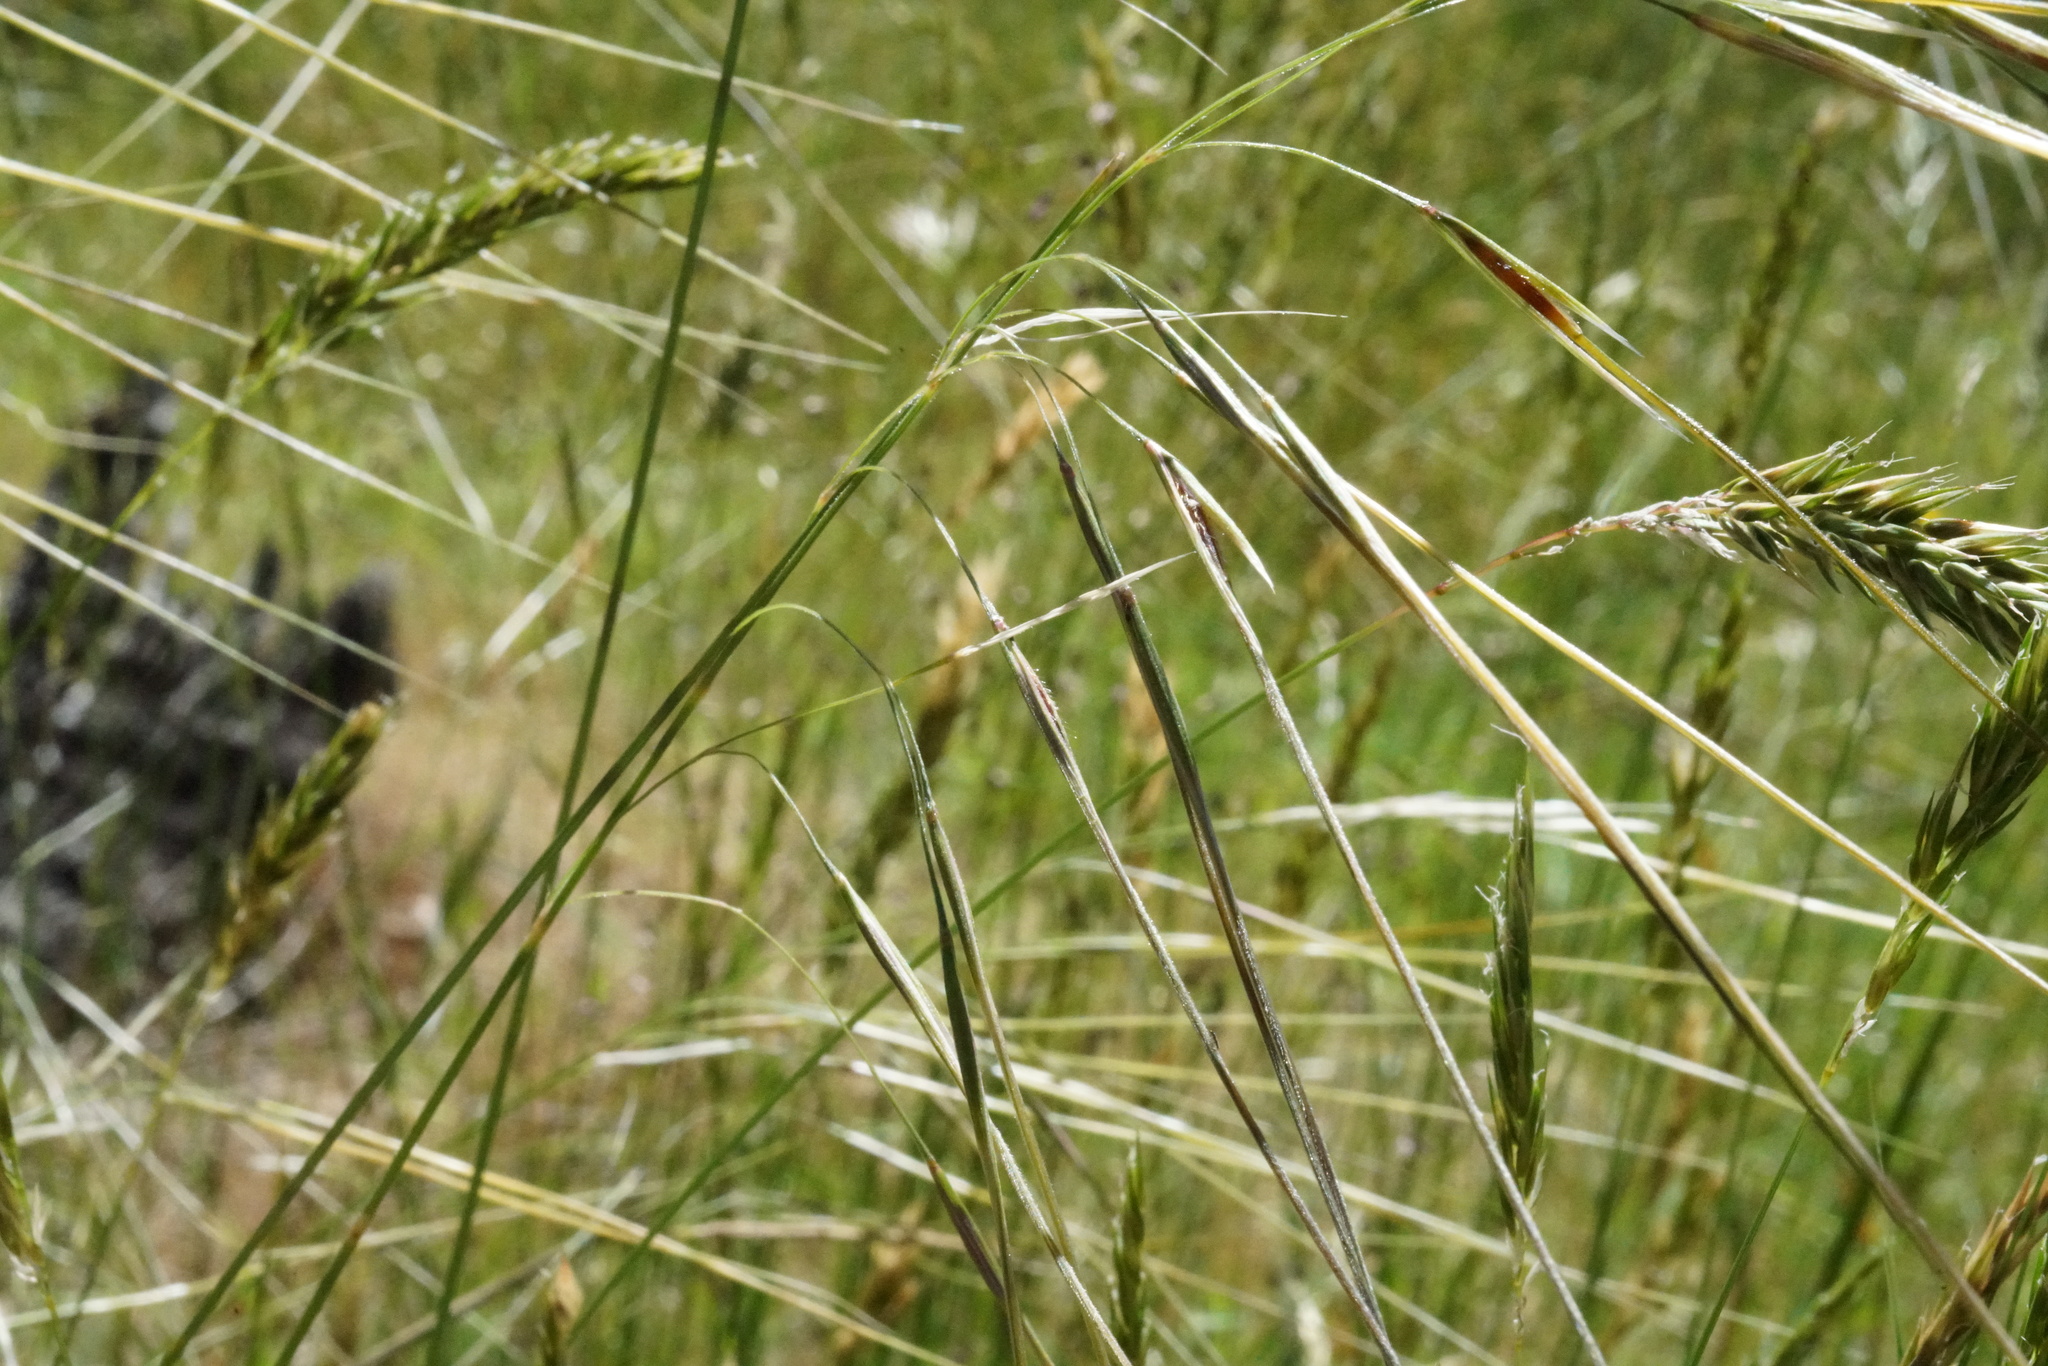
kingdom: Plantae
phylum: Tracheophyta
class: Liliopsida
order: Poales
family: Poaceae
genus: Austrostipa
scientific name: Austrostipa pubinodis
